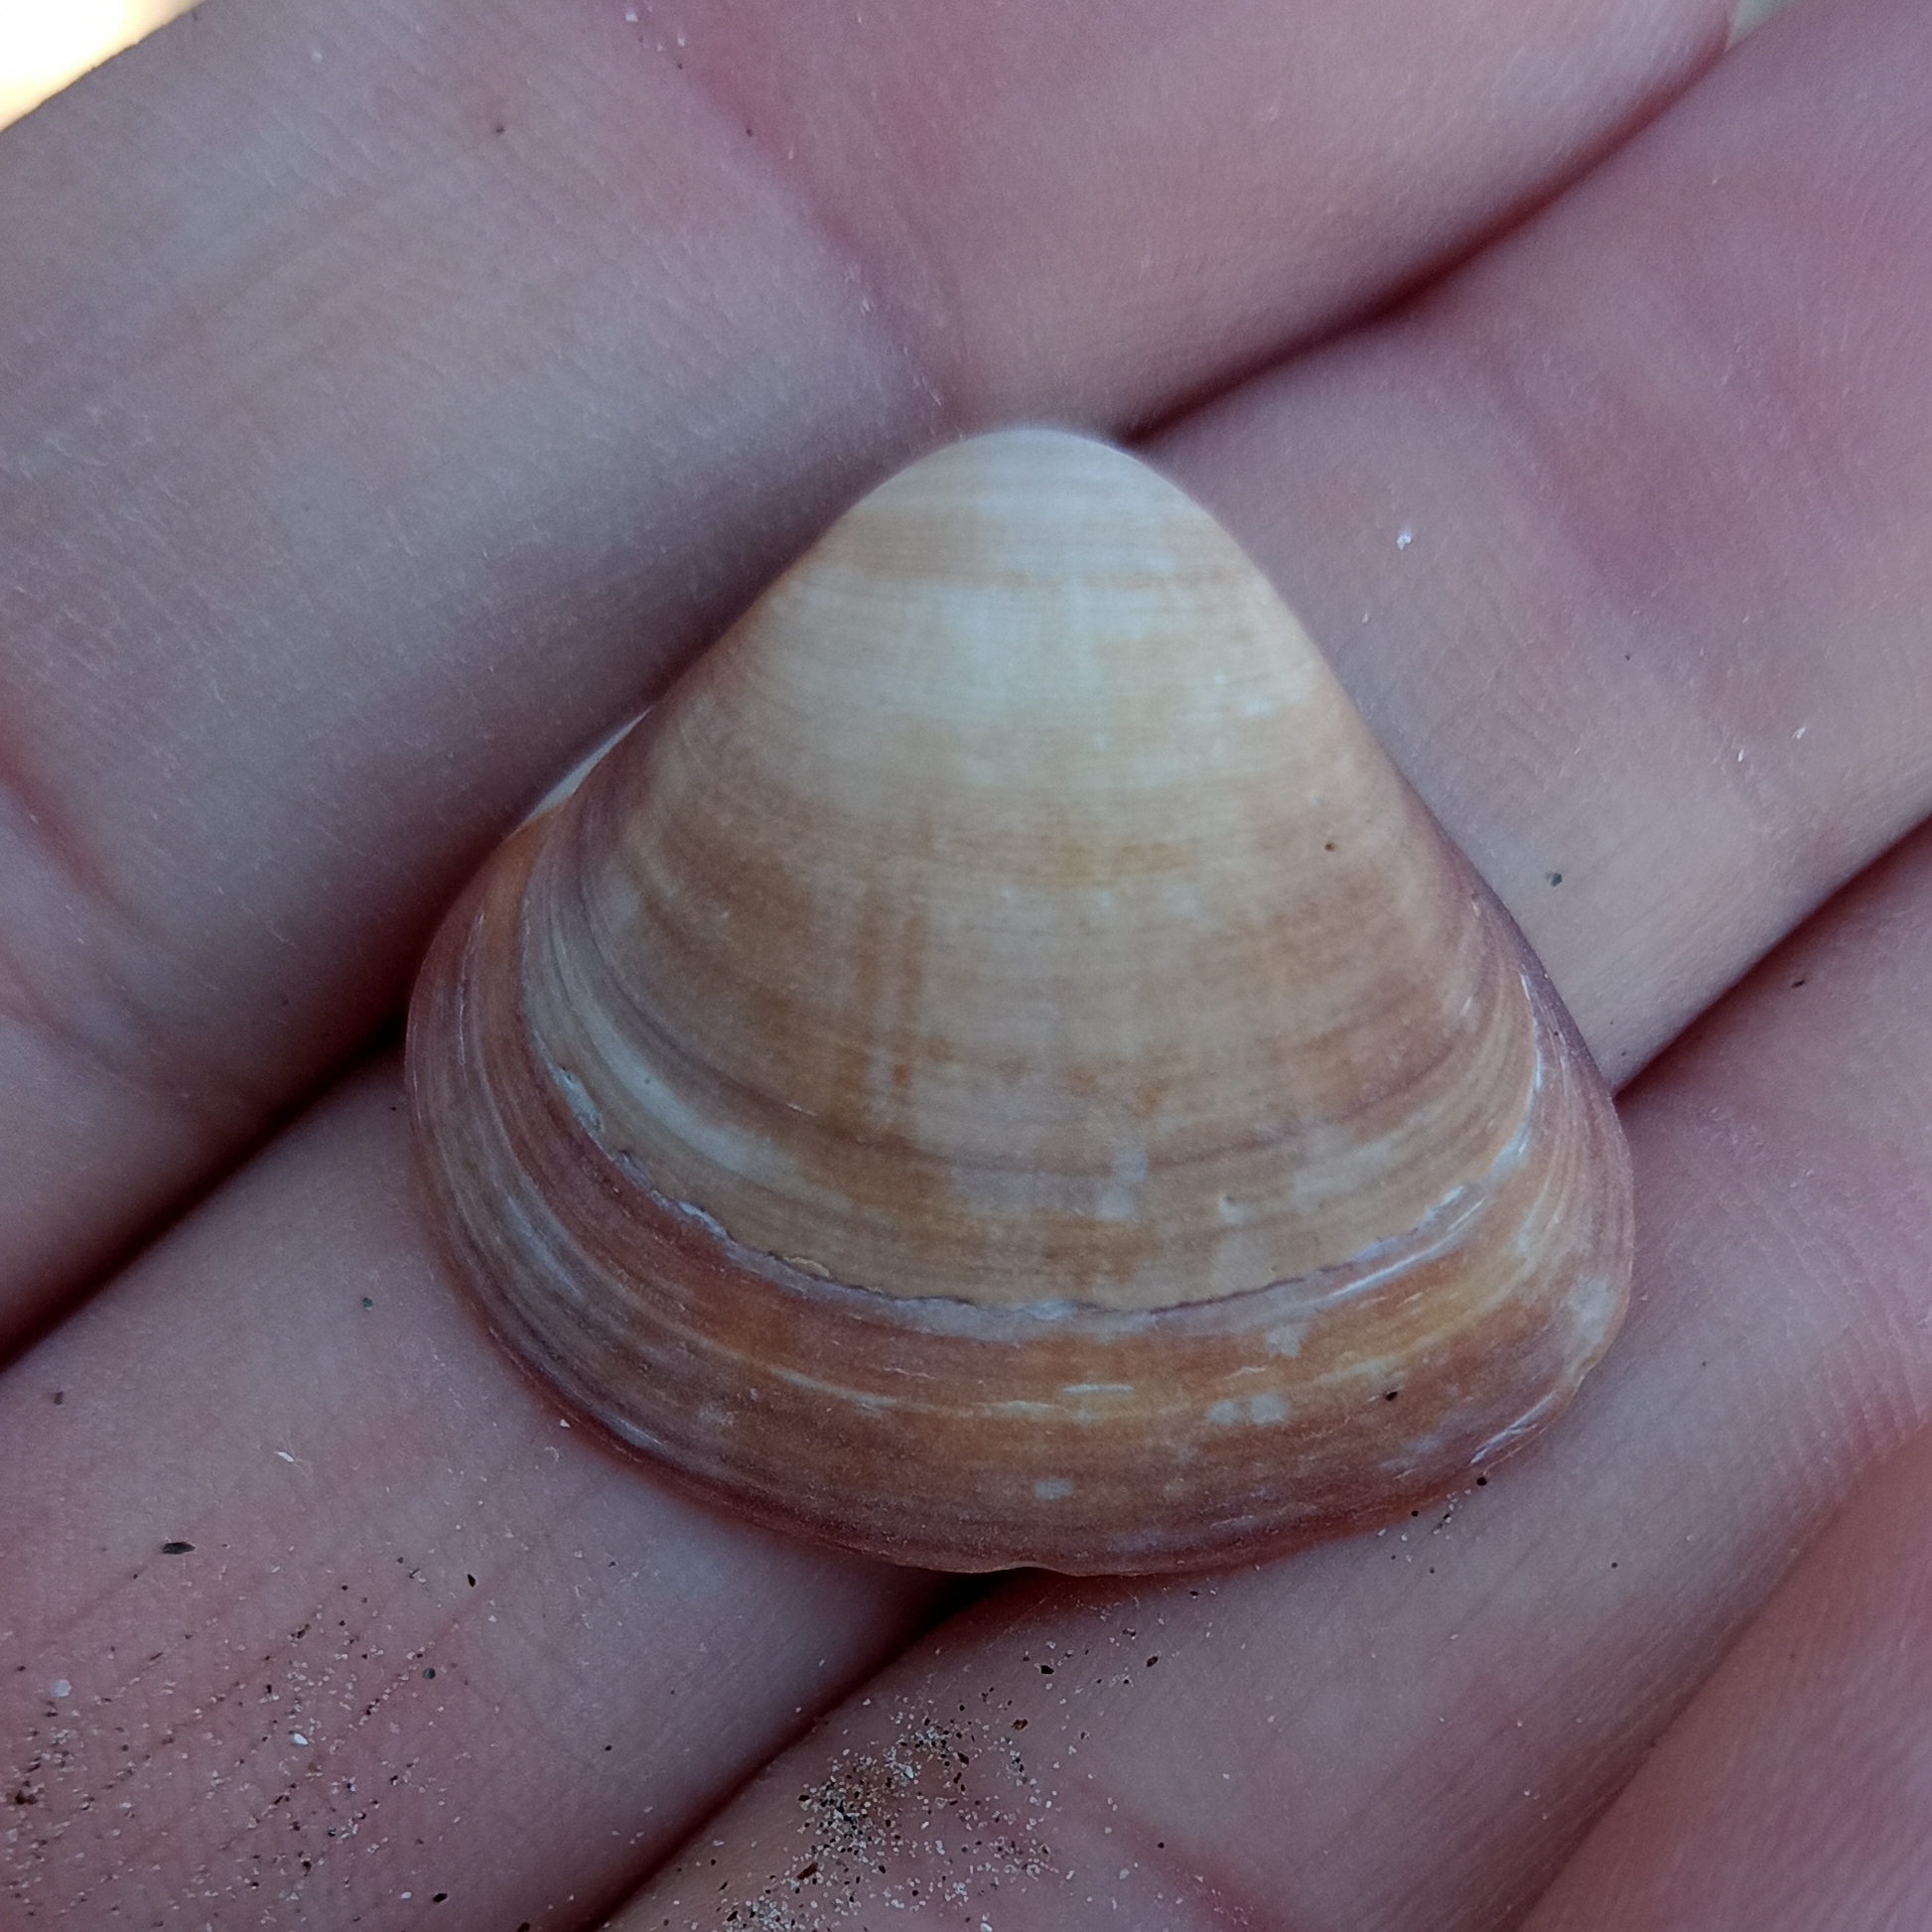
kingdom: Animalia
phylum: Mollusca
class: Bivalvia
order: Venerida
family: Veneridae
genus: Tivela
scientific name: Tivela mactroides
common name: Trigonal tivela
